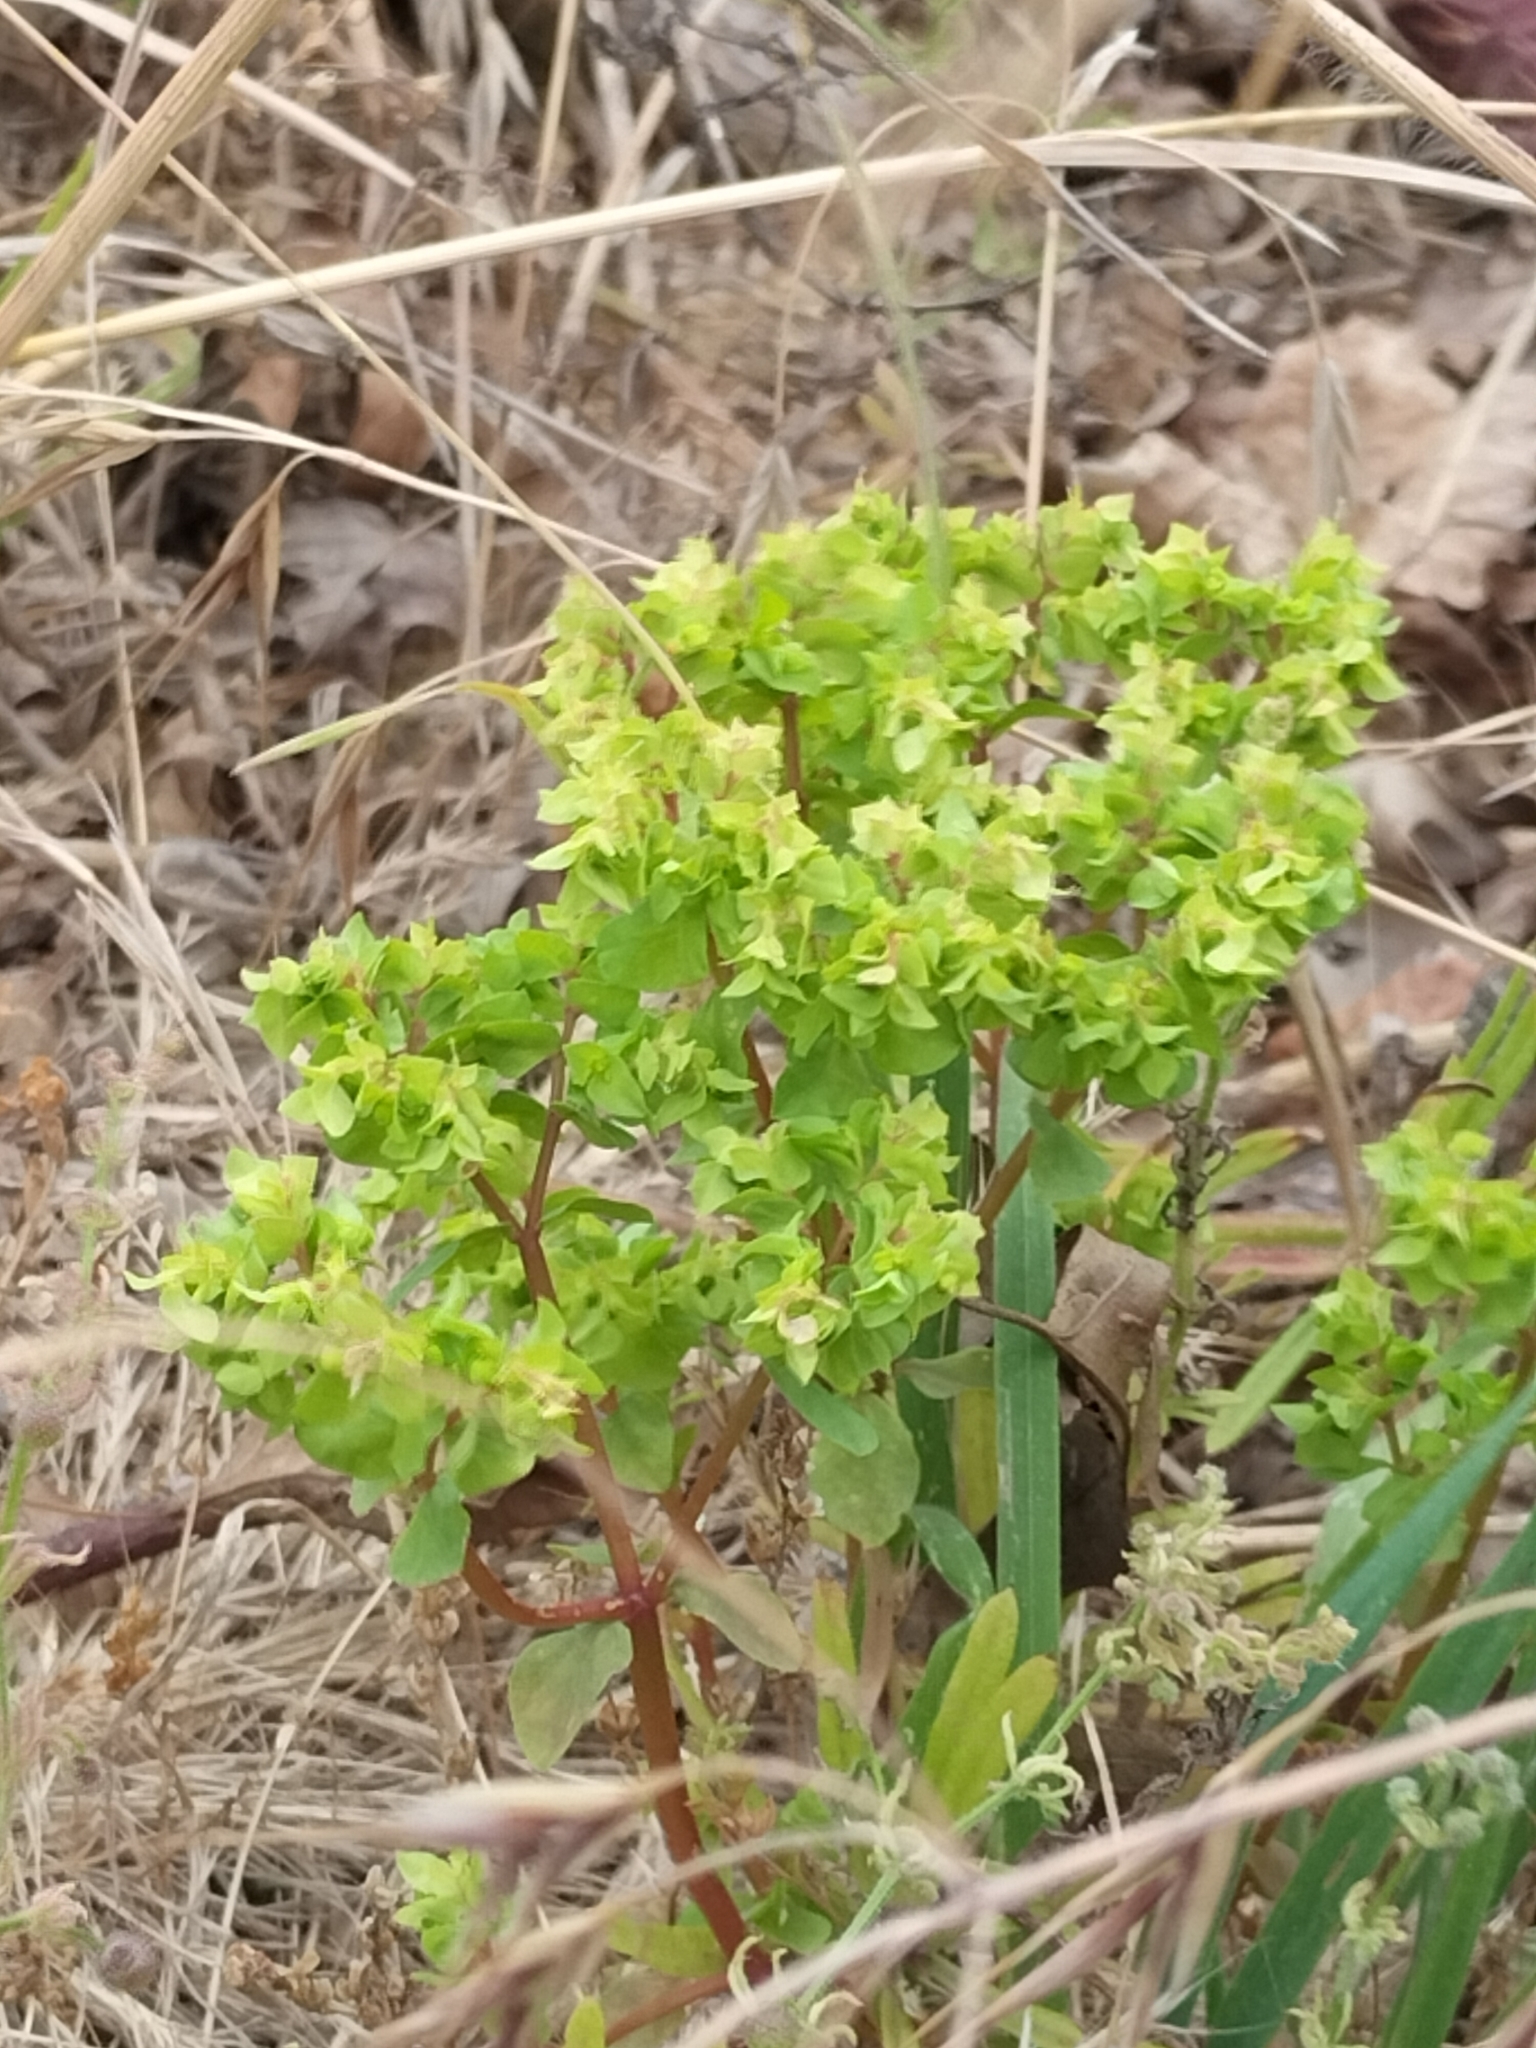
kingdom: Plantae
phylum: Tracheophyta
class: Magnoliopsida
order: Malpighiales
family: Euphorbiaceae
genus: Euphorbia
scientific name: Euphorbia peplus
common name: Petty spurge
